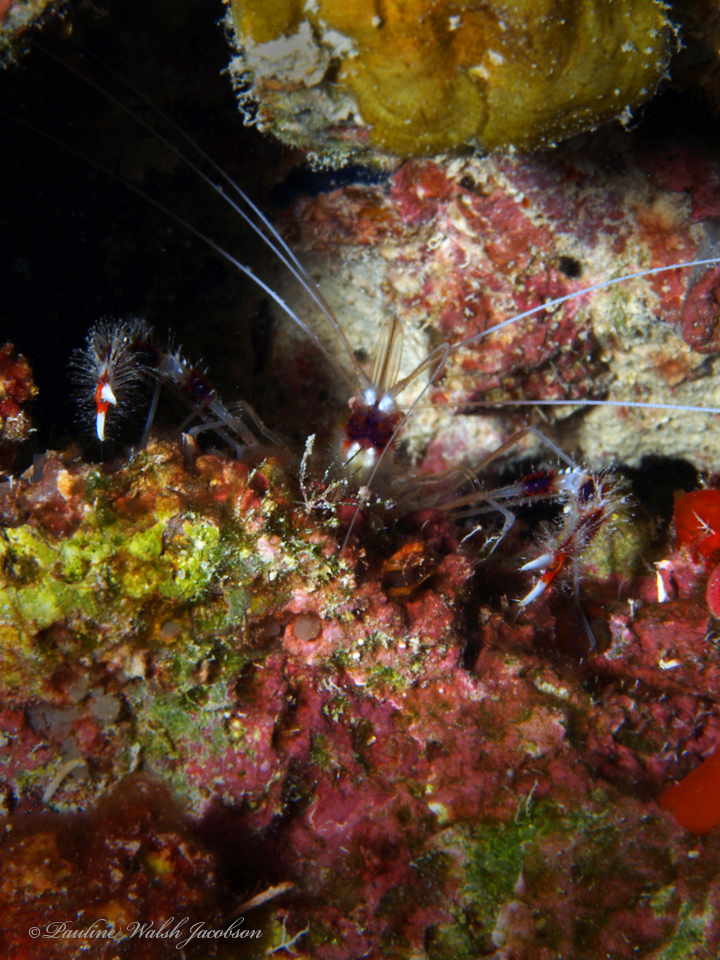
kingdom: Animalia
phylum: Arthropoda
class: Malacostraca
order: Decapoda
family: Stenopodidae
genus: Stenopus
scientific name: Stenopus hispidus
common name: Banded coral shrimp
